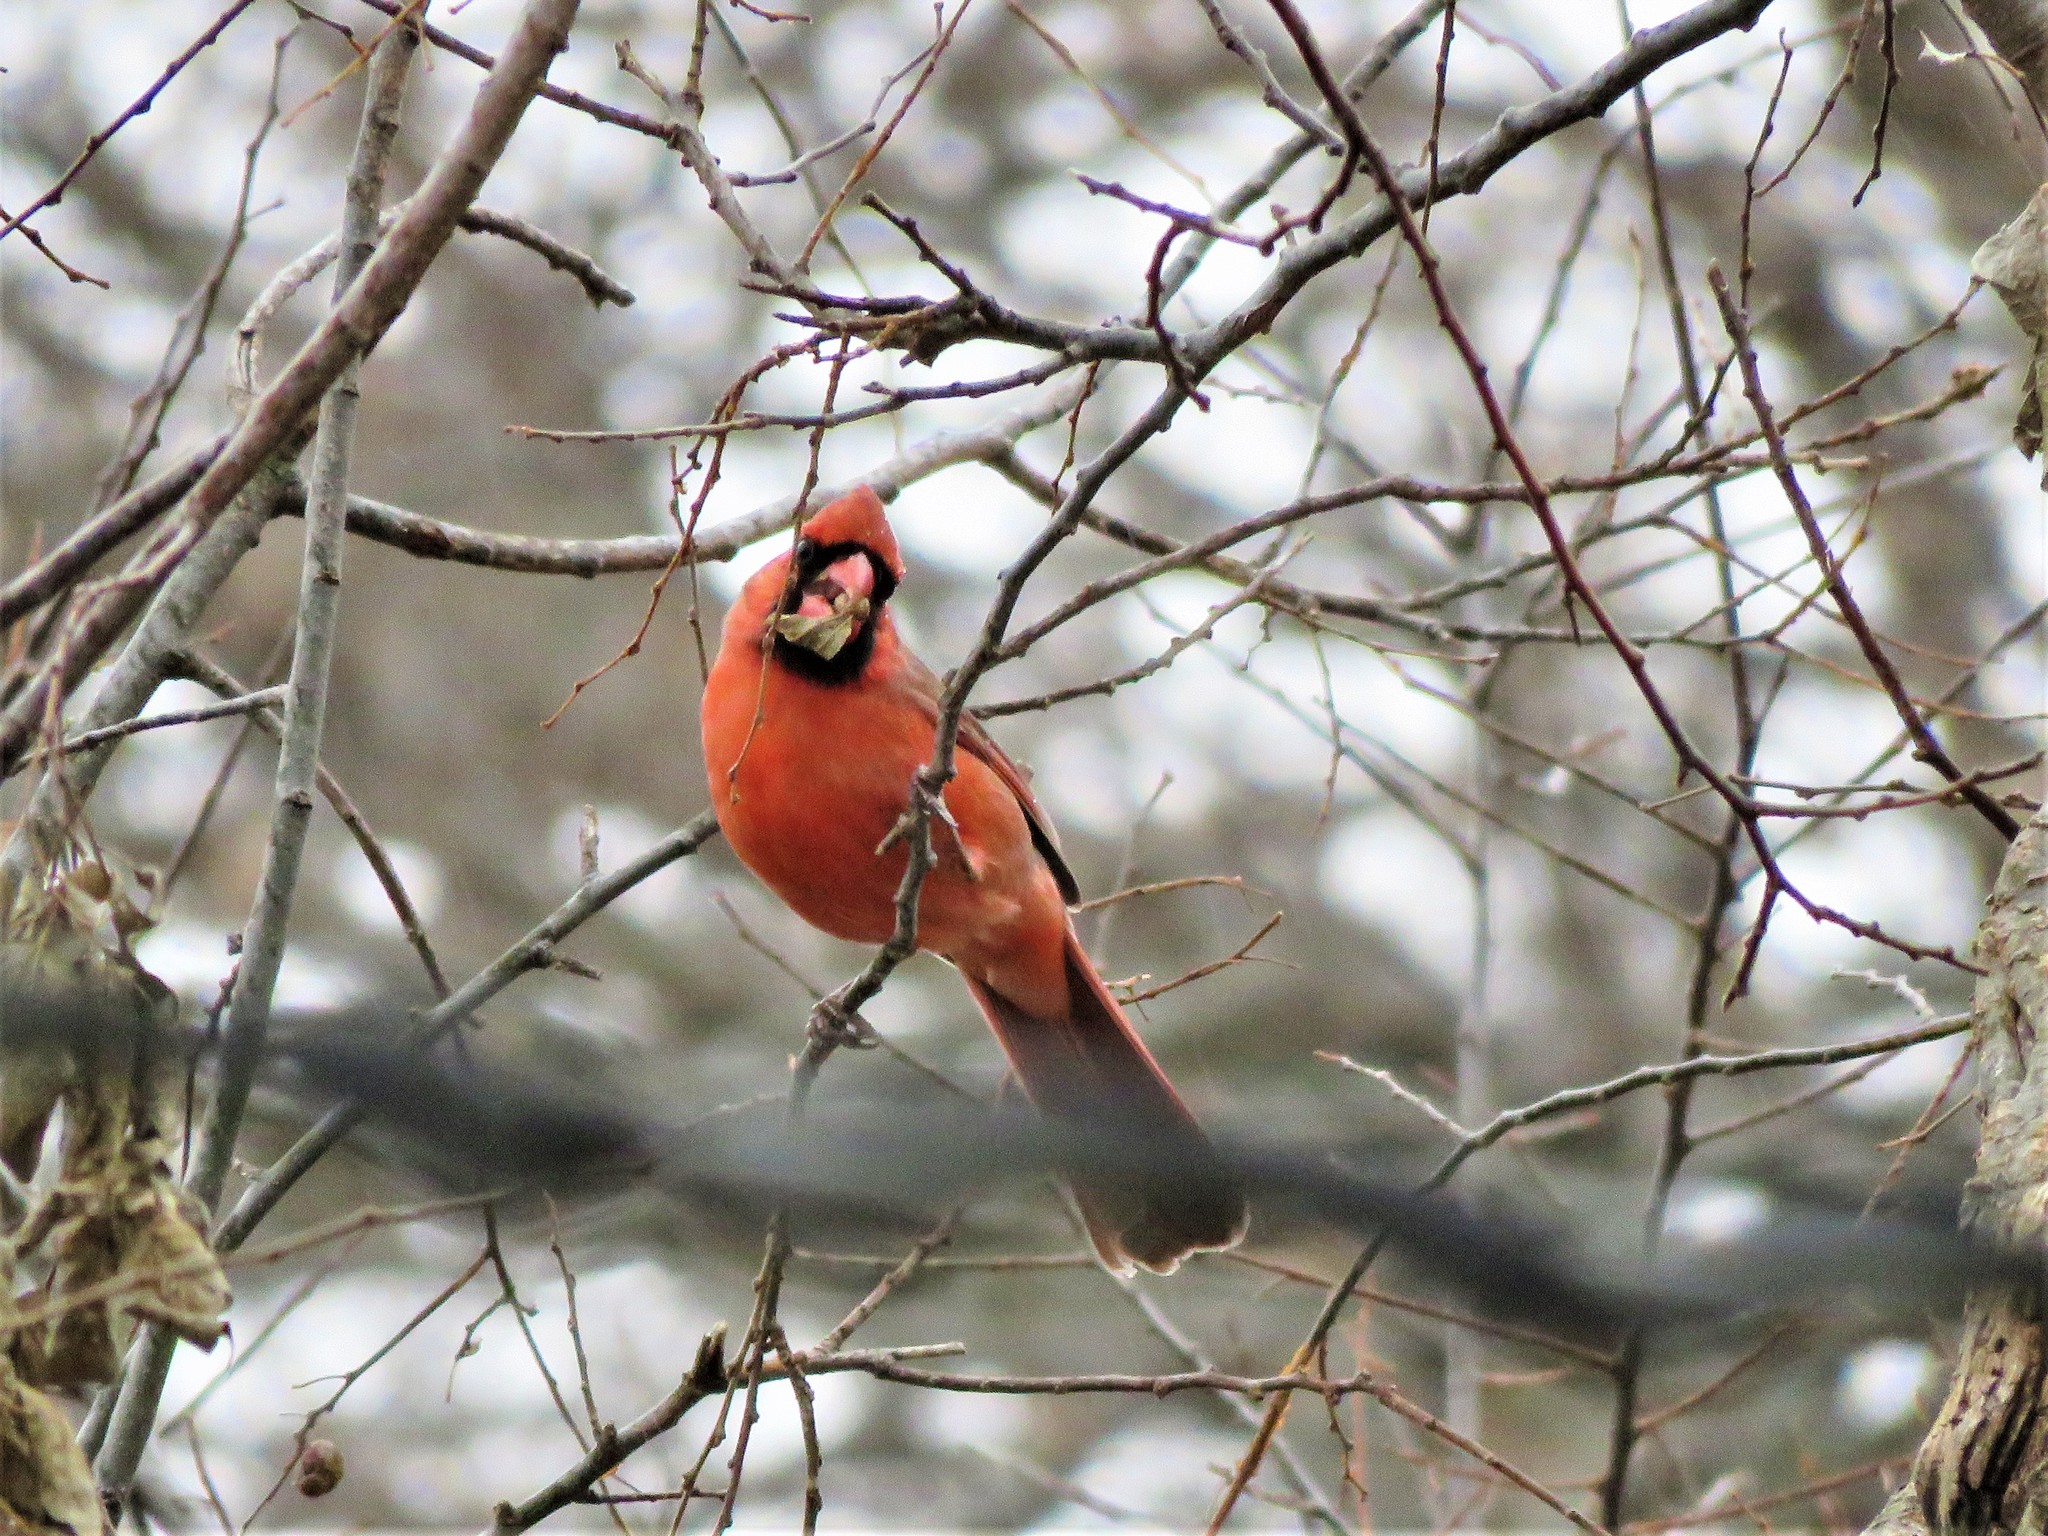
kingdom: Animalia
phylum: Chordata
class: Aves
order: Passeriformes
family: Cardinalidae
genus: Cardinalis
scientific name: Cardinalis cardinalis
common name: Northern cardinal
